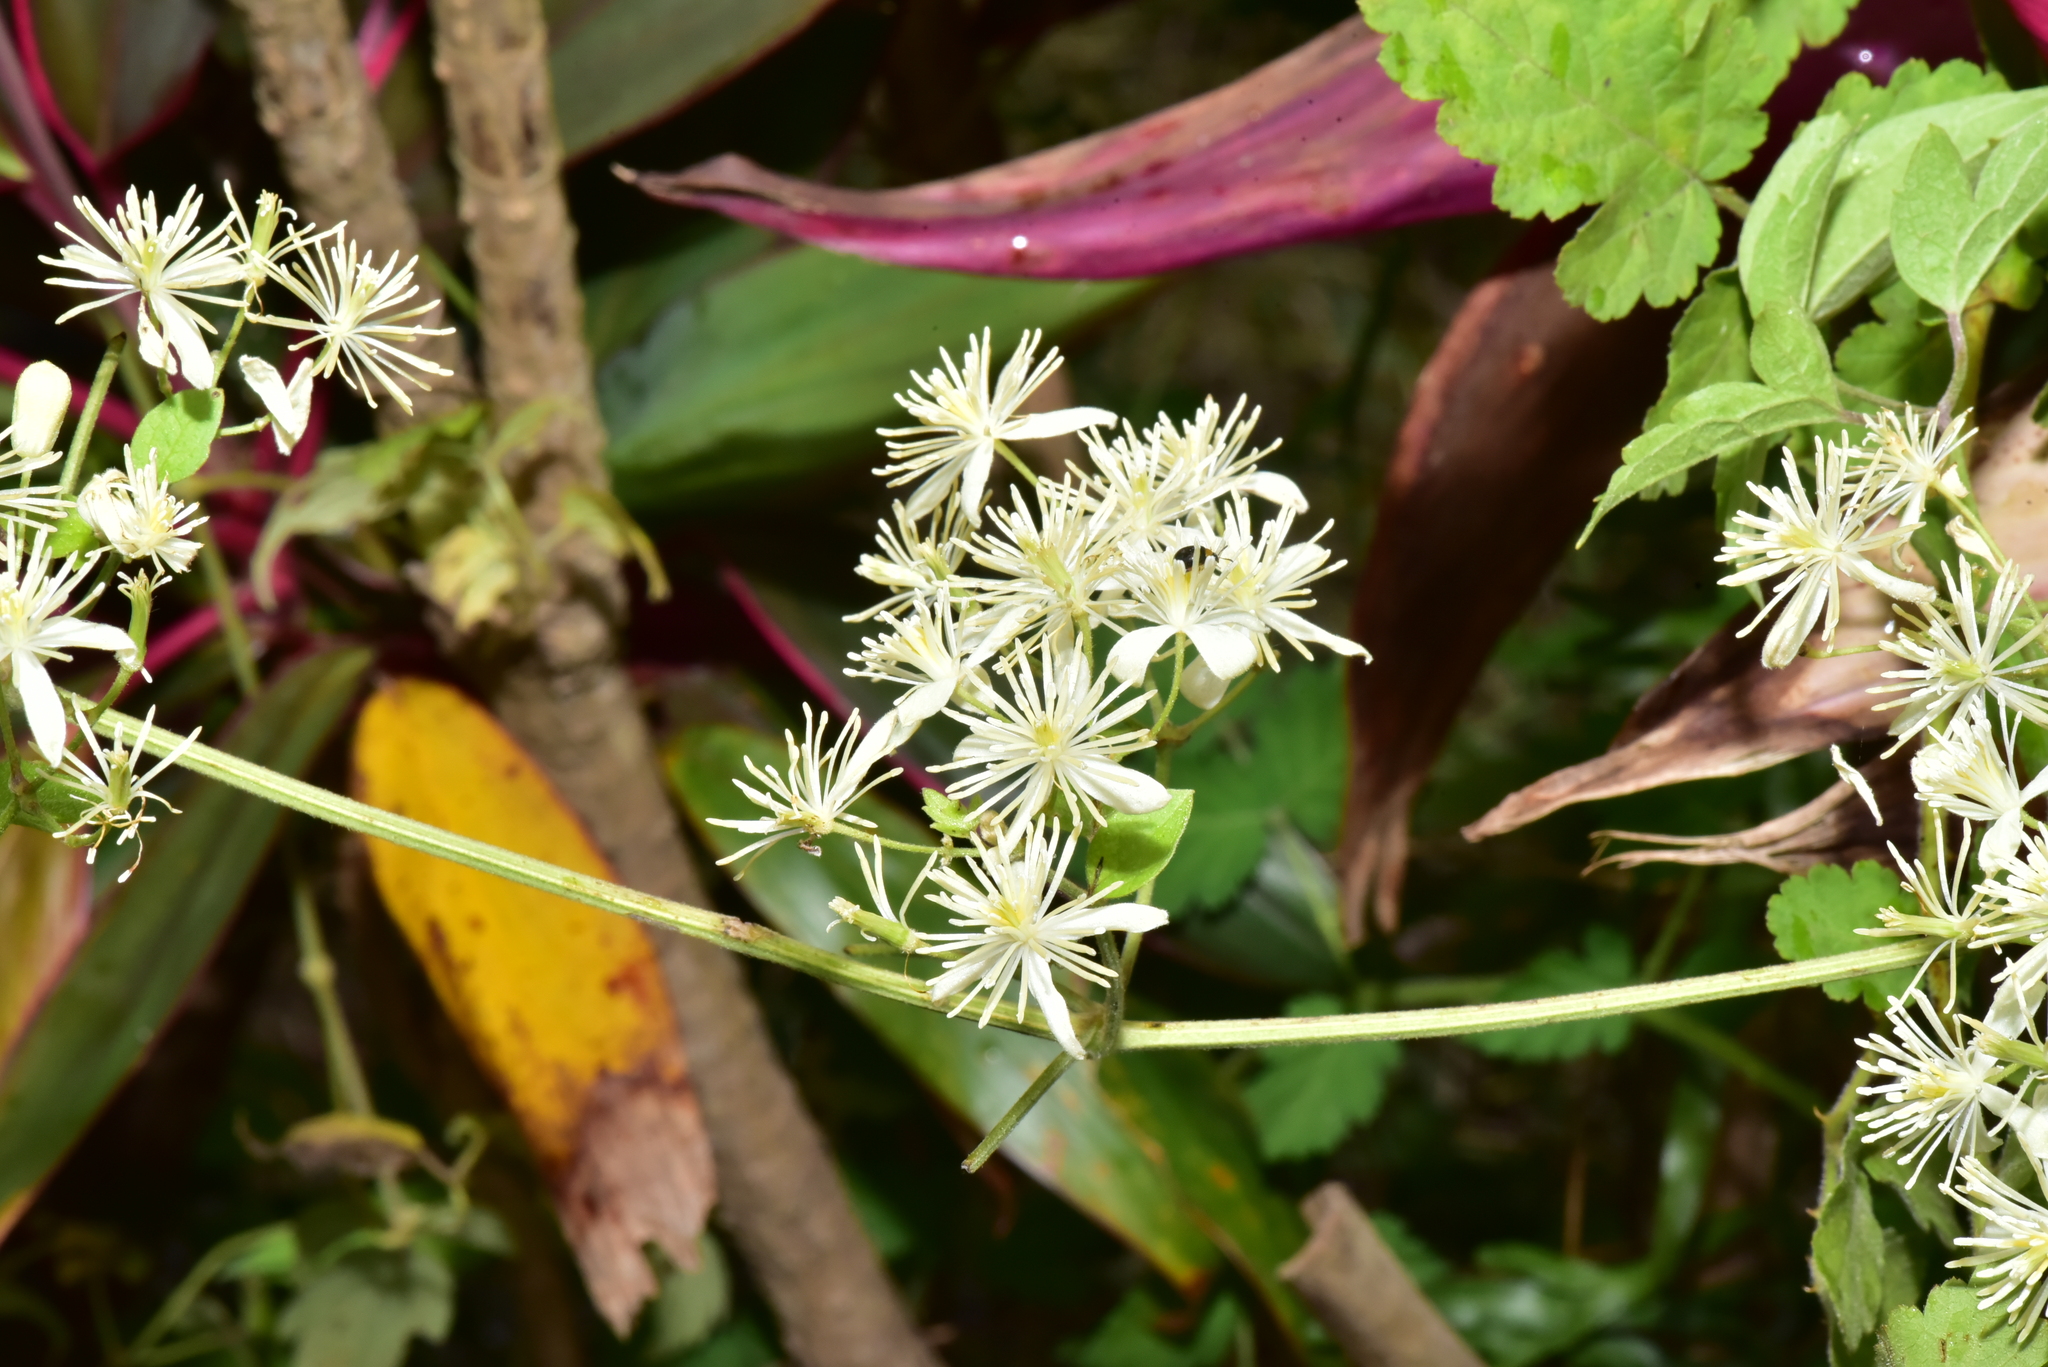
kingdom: Plantae
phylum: Tracheophyta
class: Magnoliopsida
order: Ranunculales
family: Ranunculaceae
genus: Clematis
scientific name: Clematis grata
